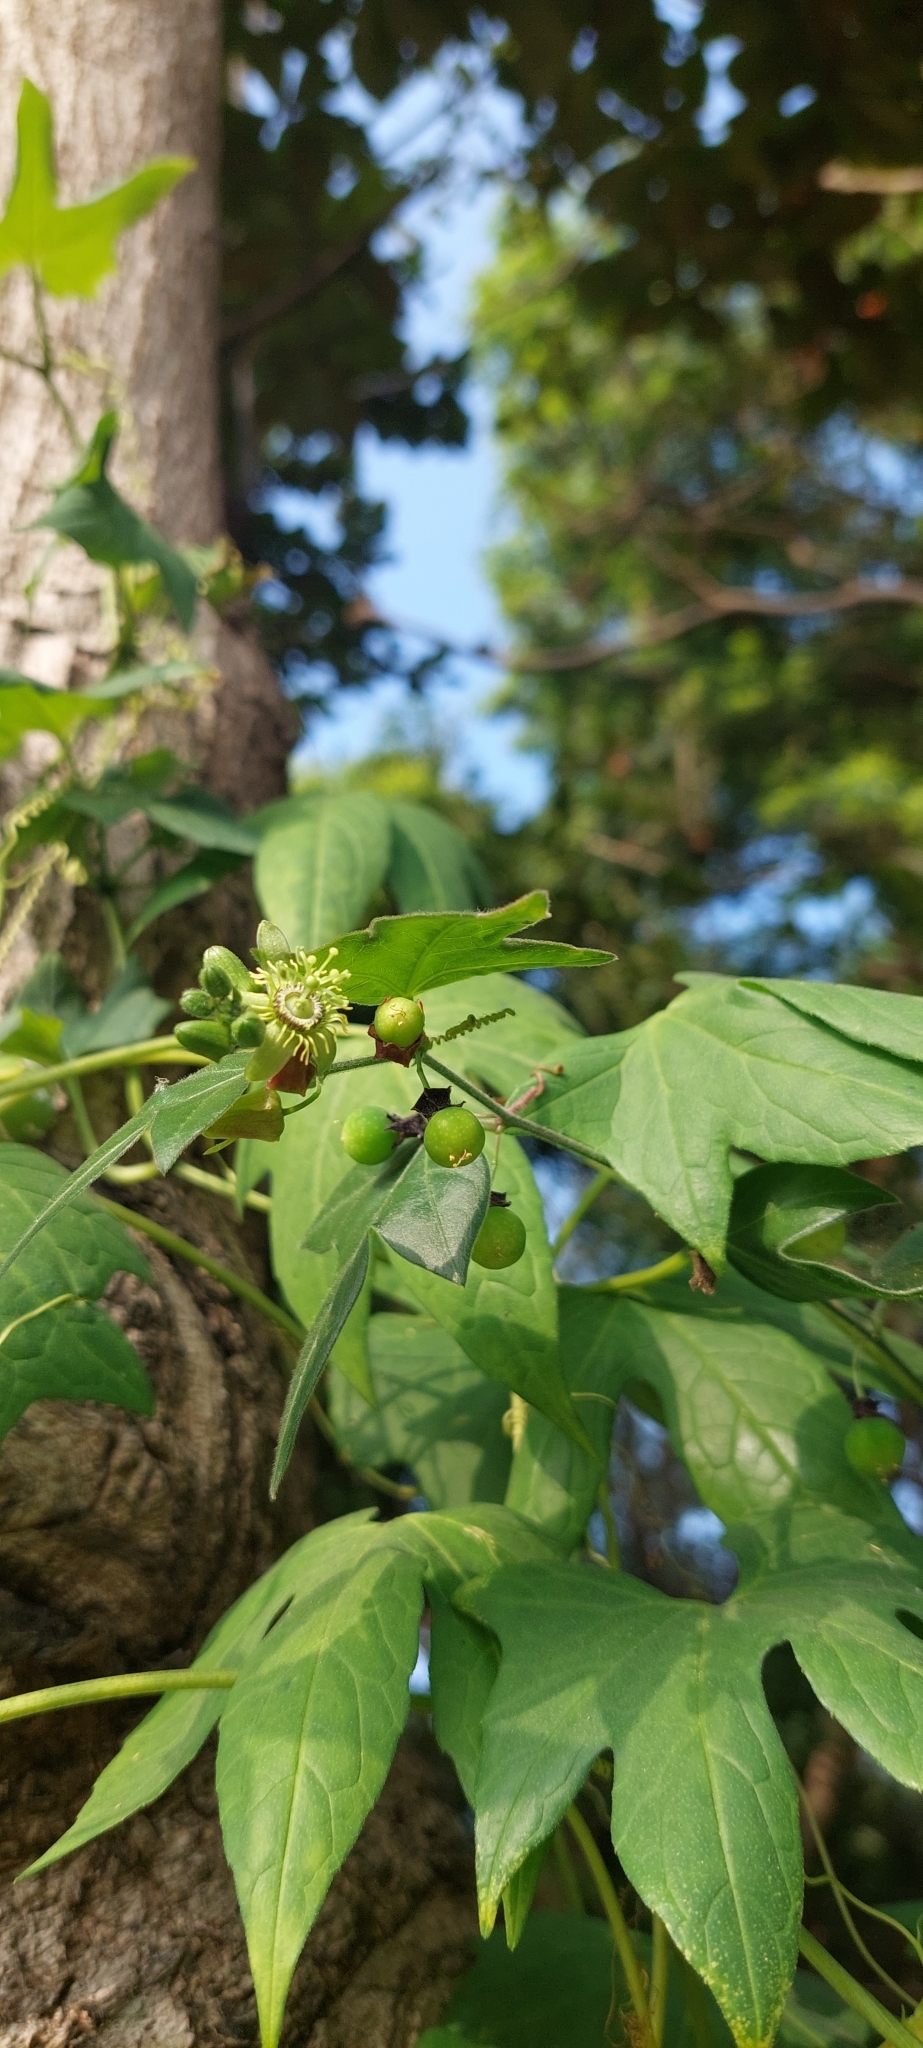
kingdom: Plantae
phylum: Tracheophyta
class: Magnoliopsida
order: Malpighiales
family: Passifloraceae
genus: Passiflora
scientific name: Passiflora suberosa
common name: Wild passionfruit
